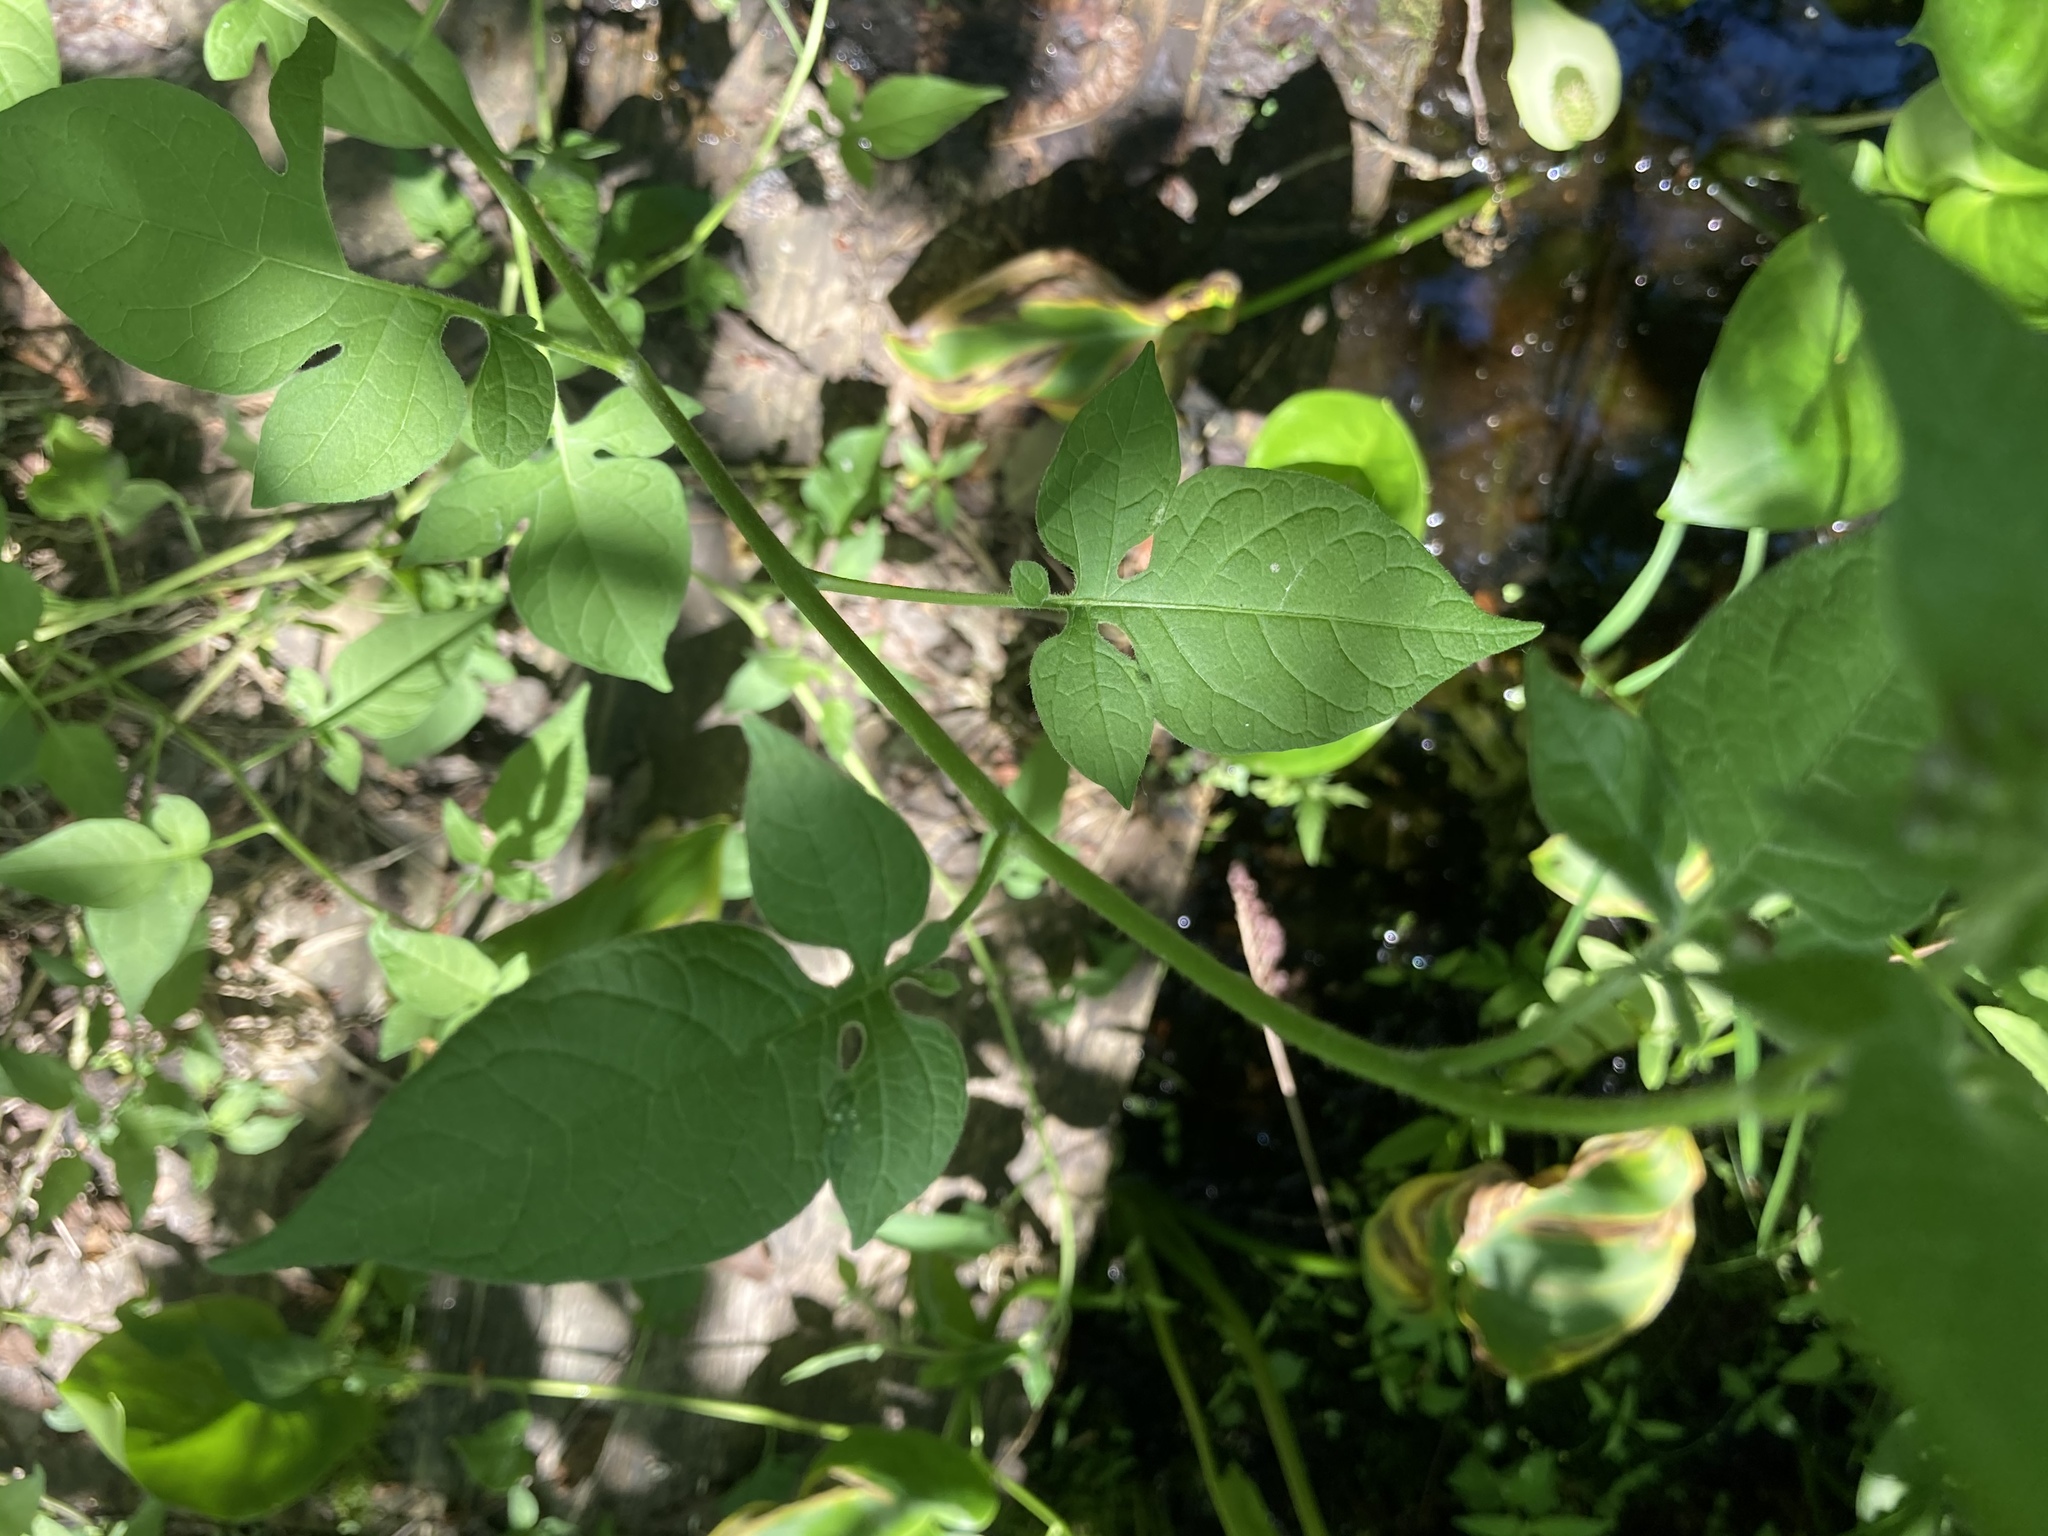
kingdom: Plantae
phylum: Tracheophyta
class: Magnoliopsida
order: Solanales
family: Solanaceae
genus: Solanum
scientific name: Solanum dulcamara
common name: Climbing nightshade
